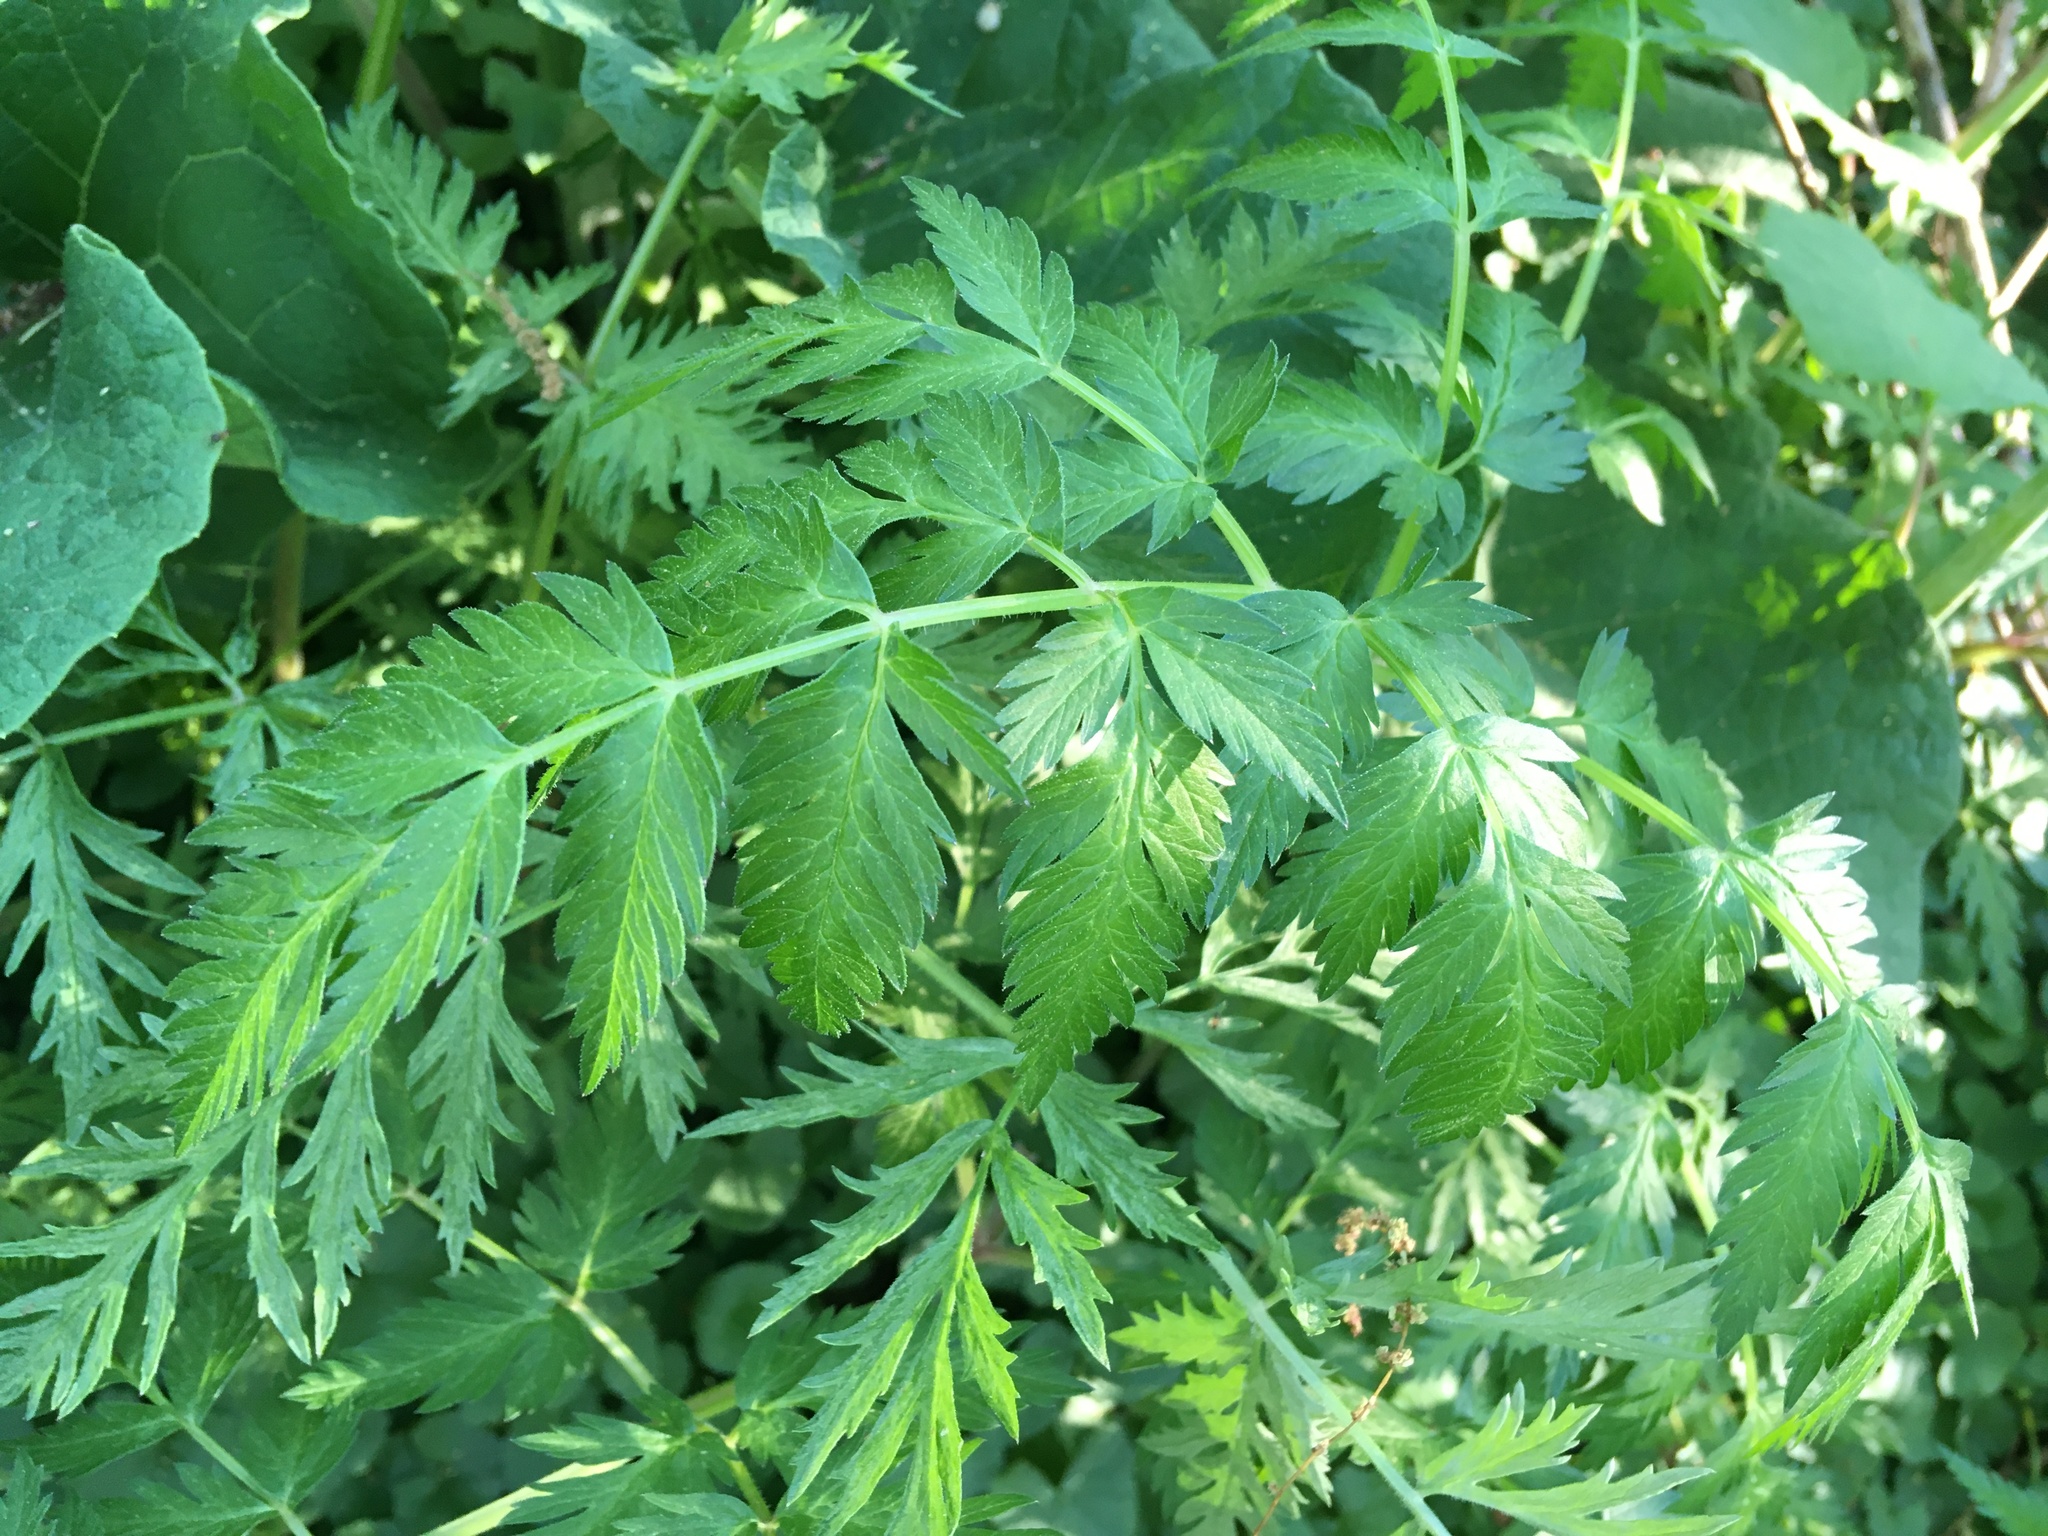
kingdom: Plantae
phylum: Tracheophyta
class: Magnoliopsida
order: Apiales
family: Apiaceae
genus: Anthriscus
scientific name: Anthriscus sylvestris
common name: Cow parsley
